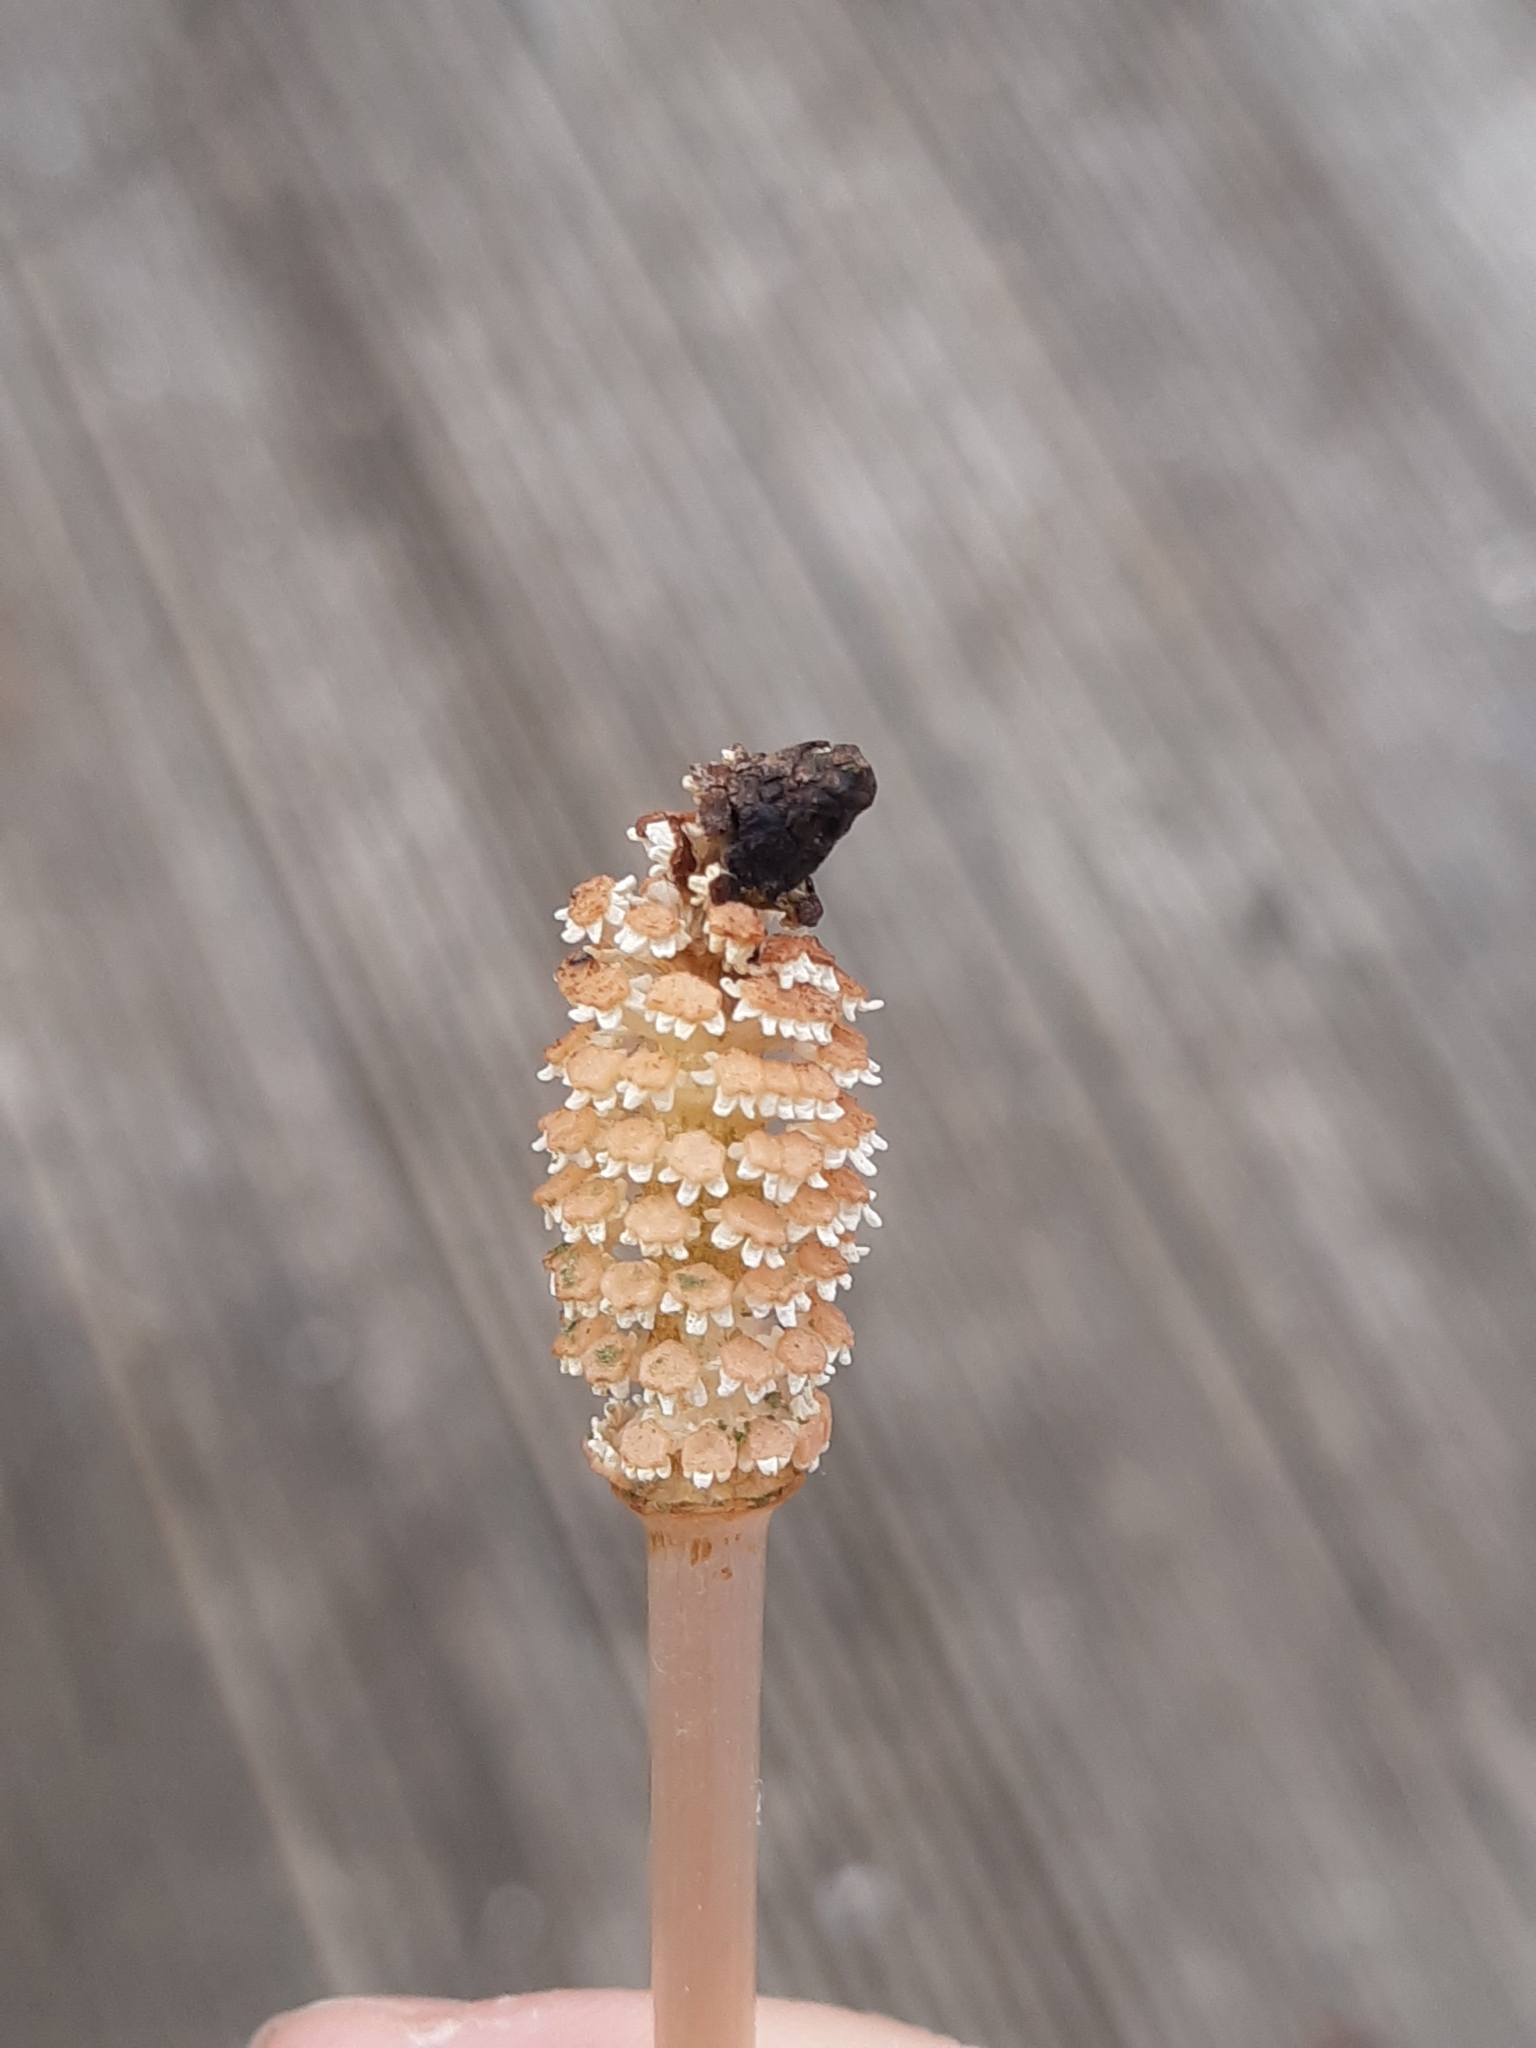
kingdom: Plantae
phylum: Tracheophyta
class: Polypodiopsida
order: Equisetales
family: Equisetaceae
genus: Equisetum
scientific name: Equisetum arvense
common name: Field horsetail
